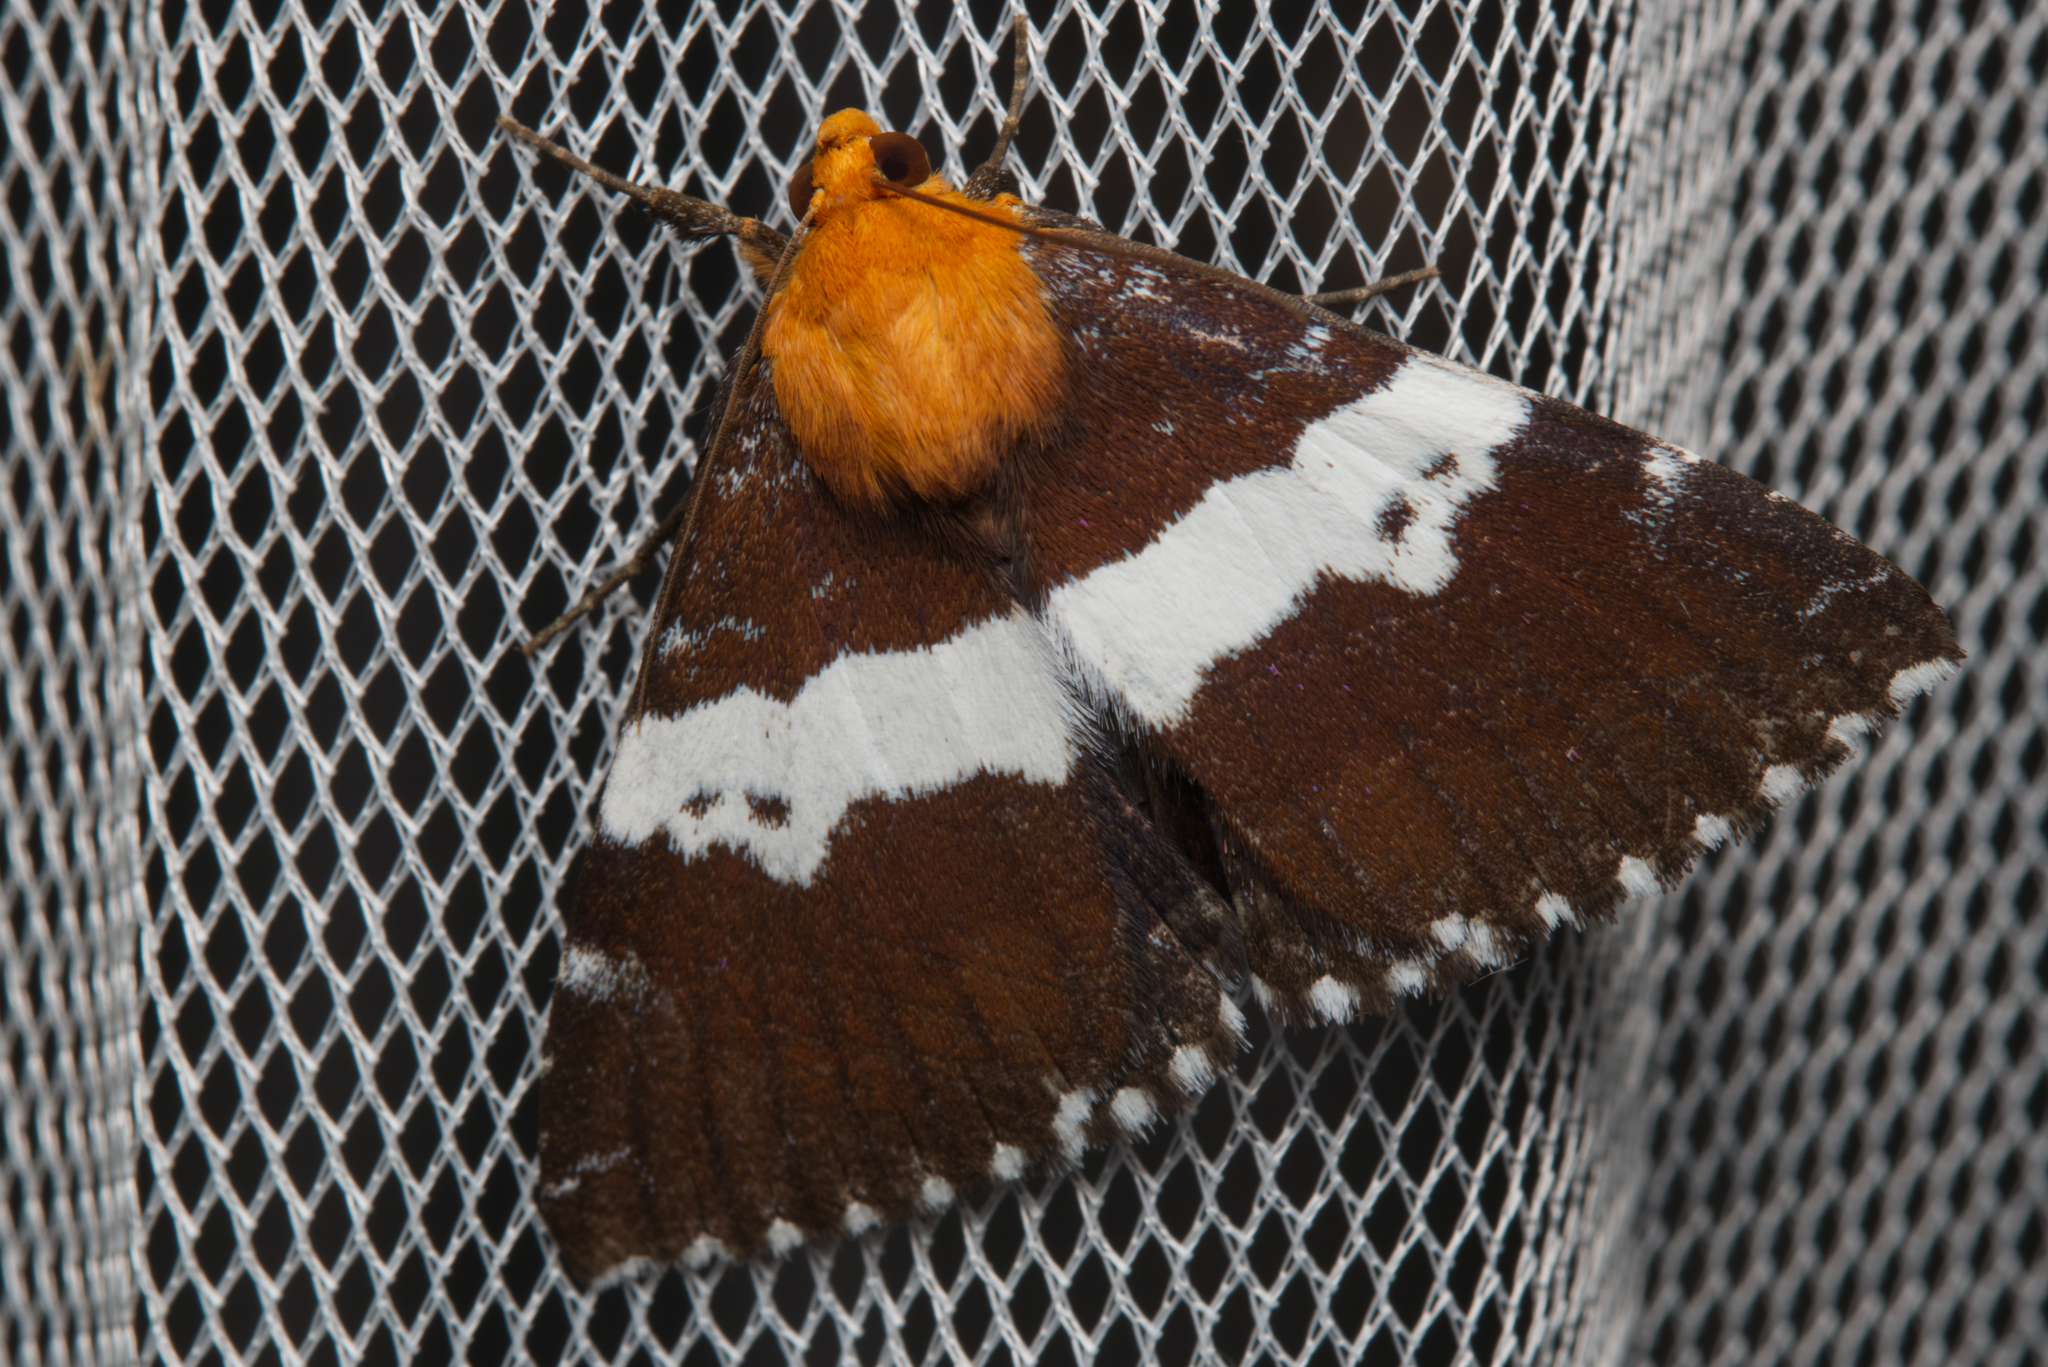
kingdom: Animalia
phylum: Arthropoda
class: Insecta
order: Lepidoptera
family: Erebidae
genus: Buzara
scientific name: Buzara latizona
